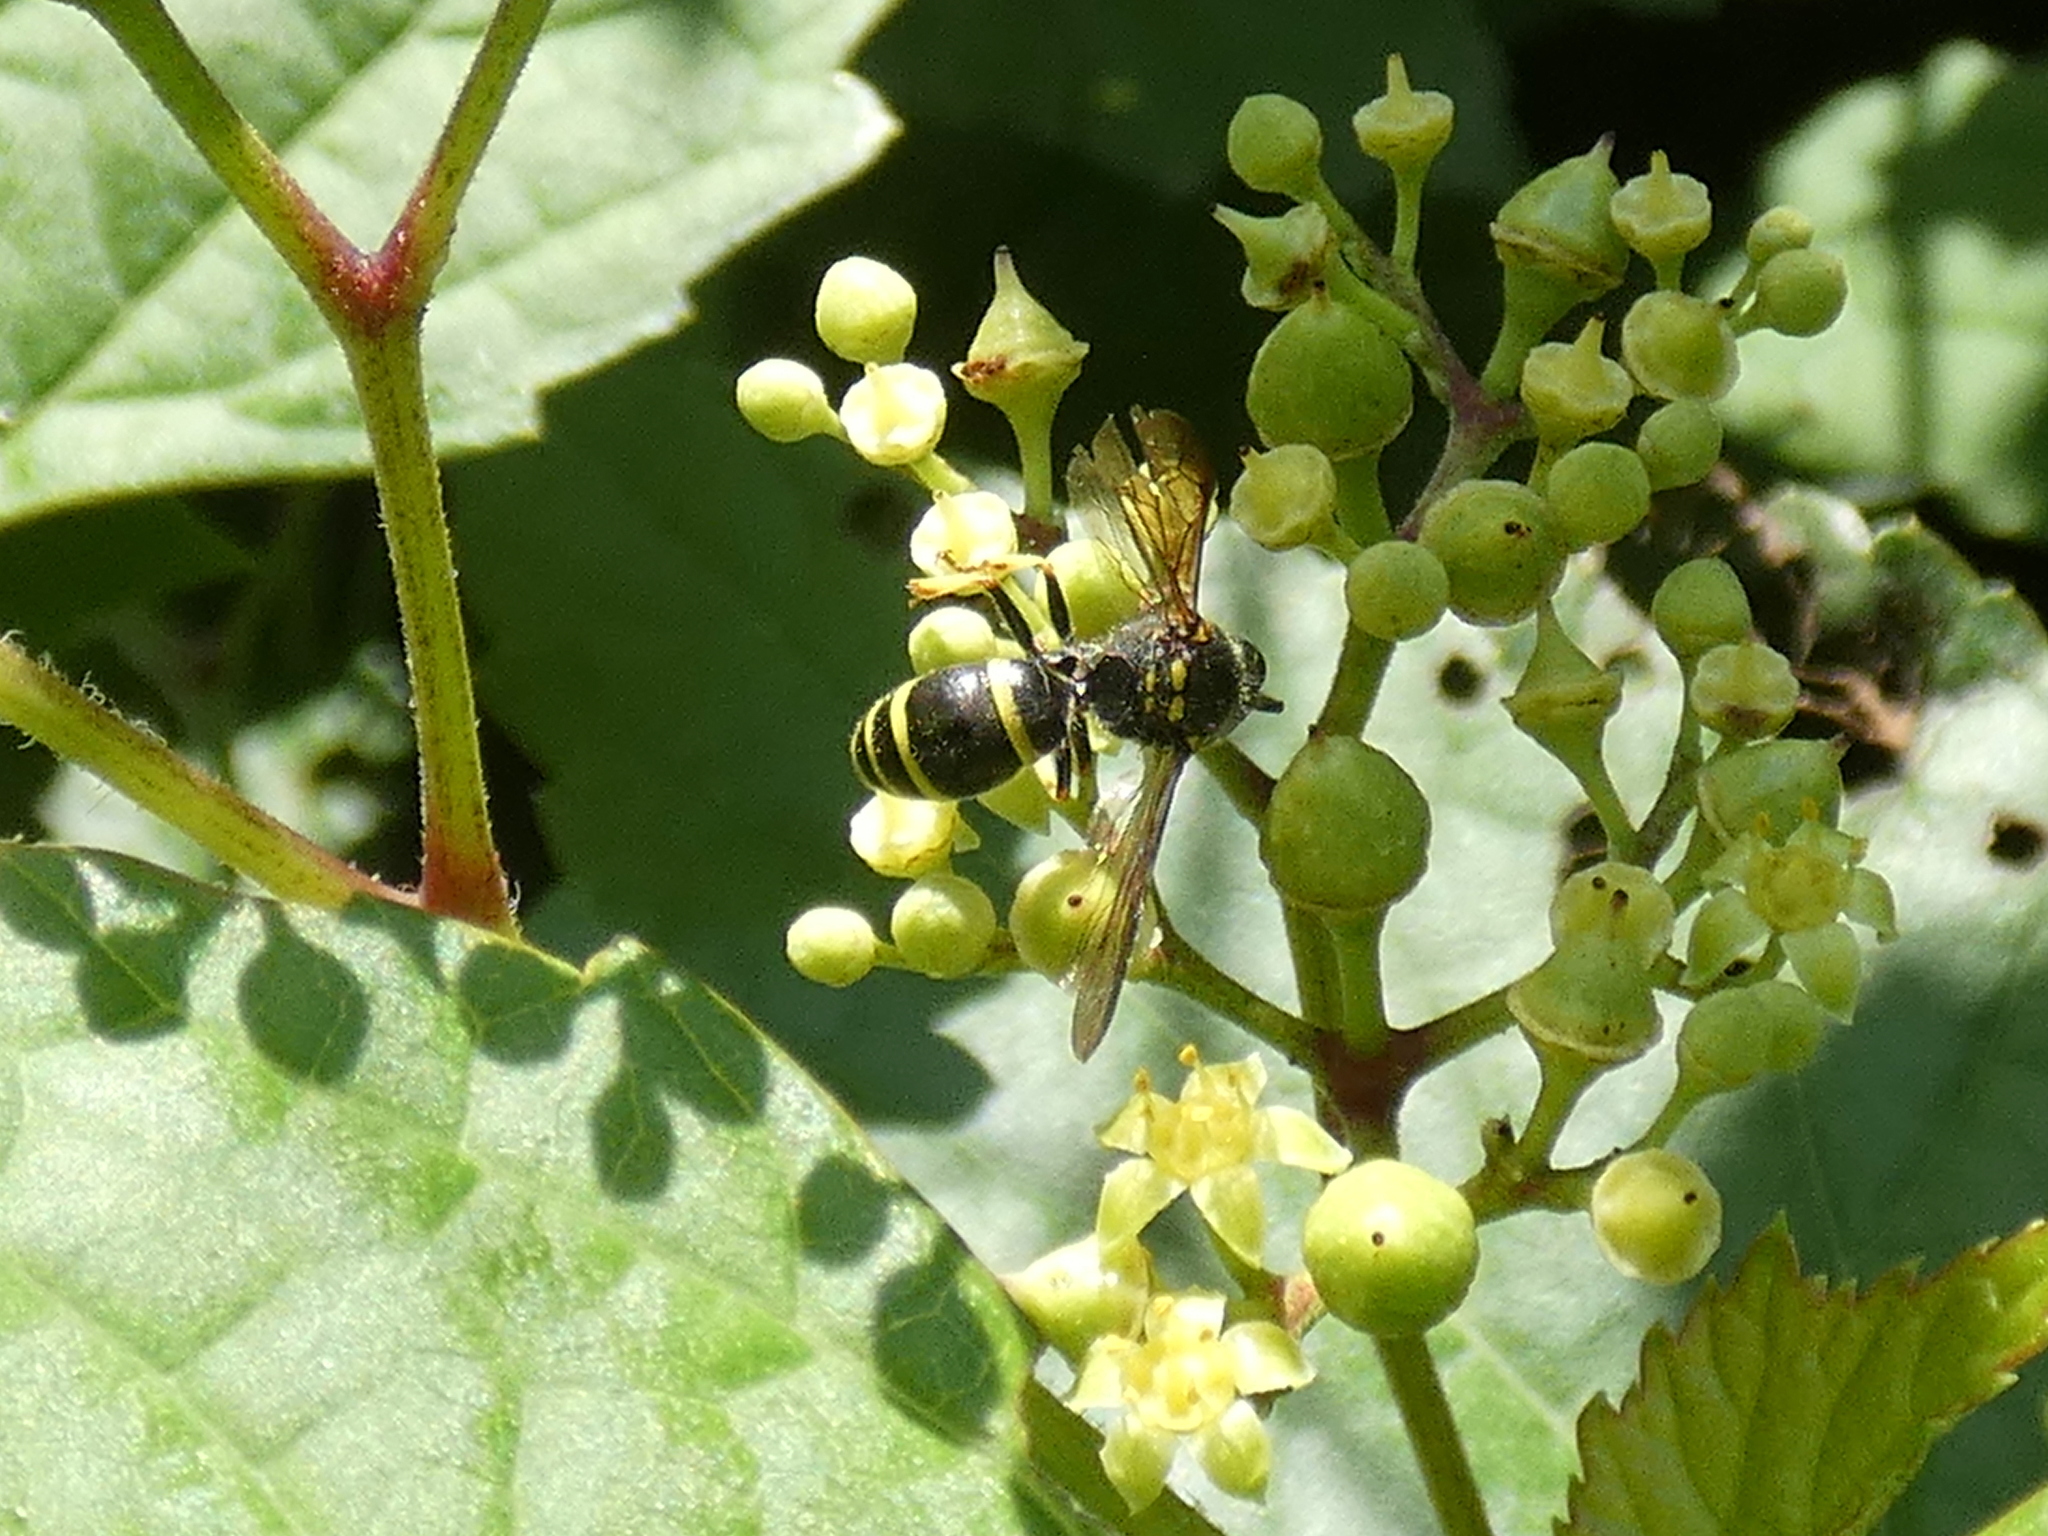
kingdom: Animalia
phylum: Arthropoda
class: Insecta
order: Hymenoptera
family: Vespidae
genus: Ancistrocerus
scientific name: Ancistrocerus
